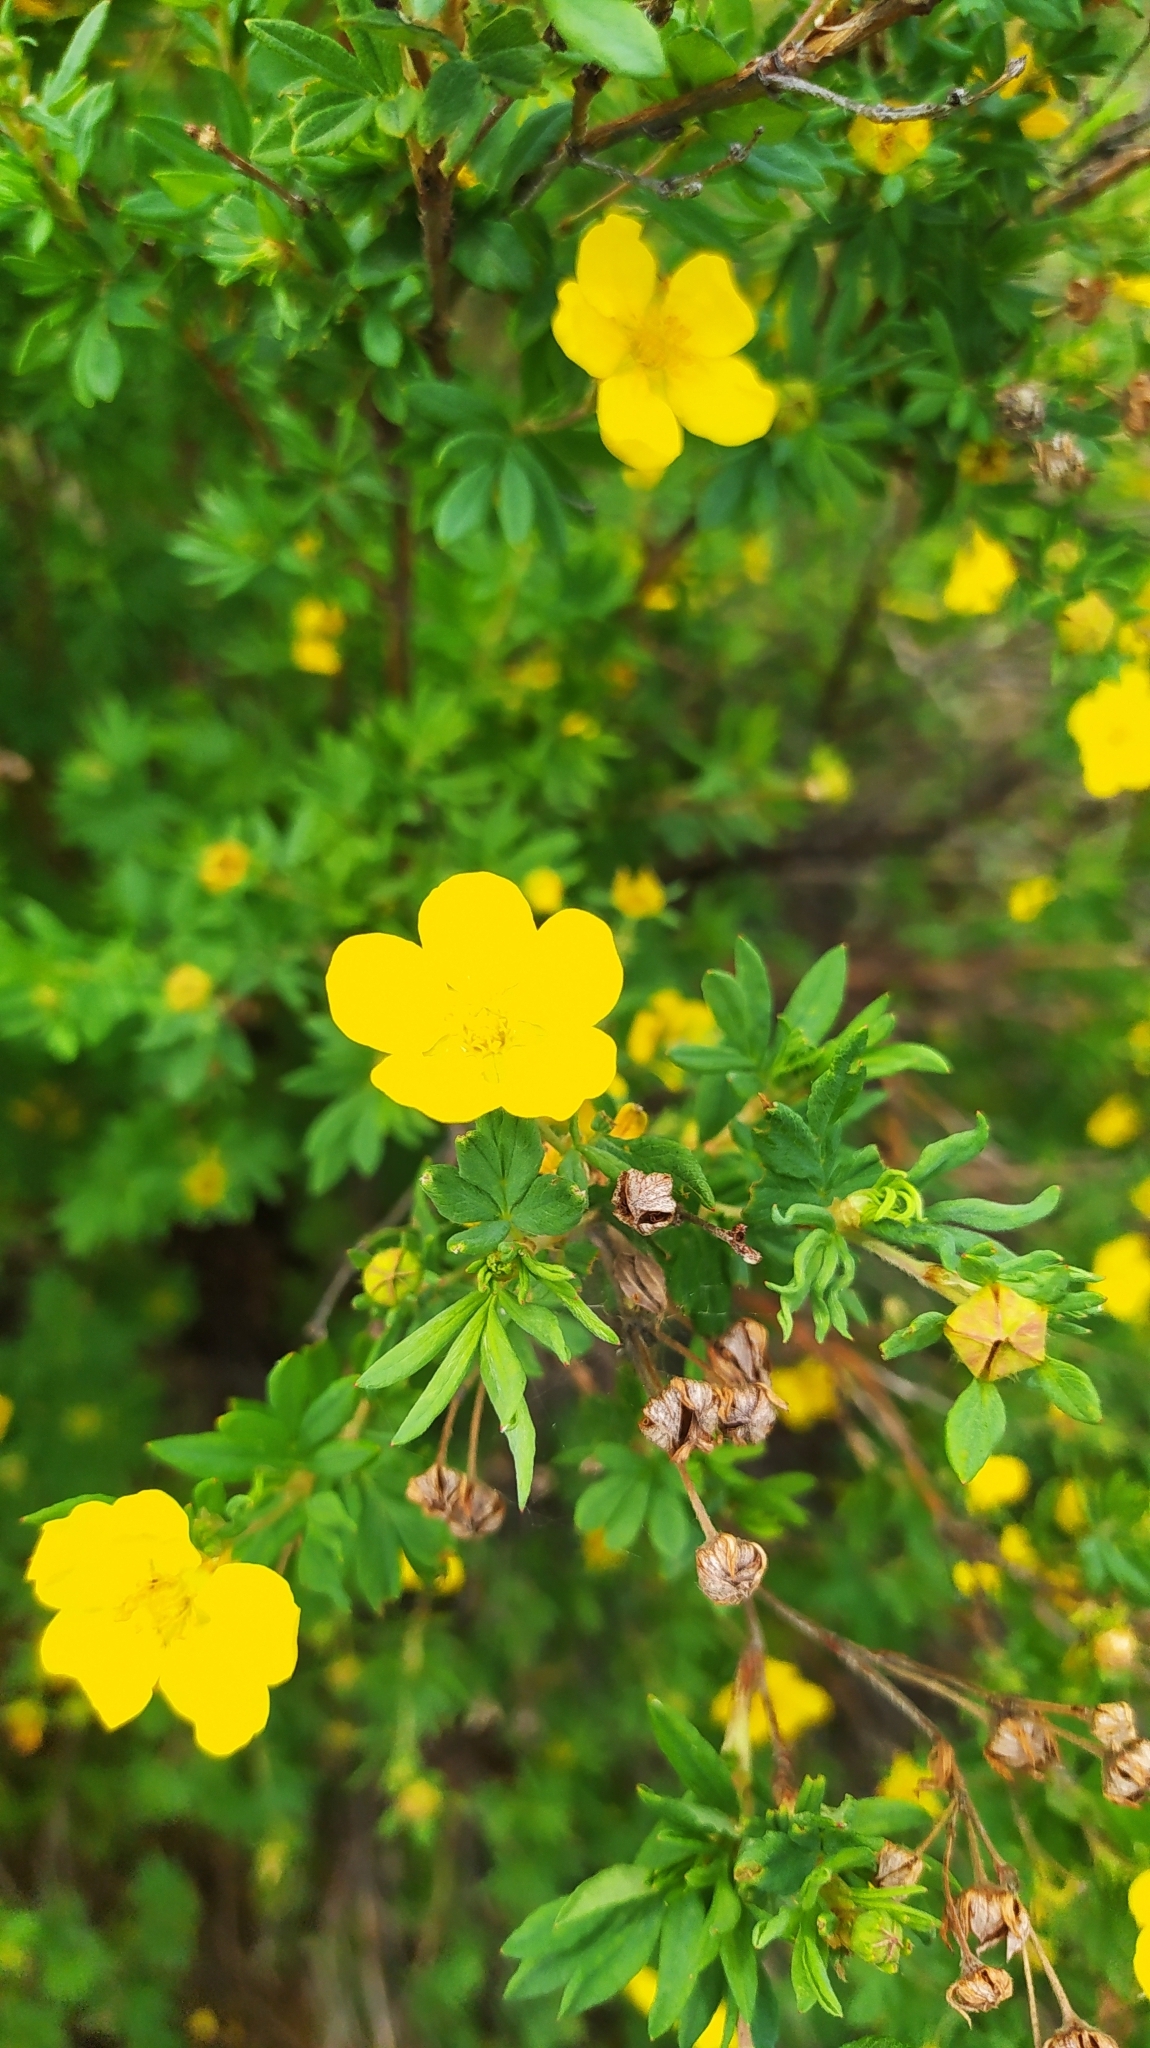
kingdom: Plantae
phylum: Tracheophyta
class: Magnoliopsida
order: Rosales
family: Rosaceae
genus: Dasiphora
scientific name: Dasiphora fruticosa
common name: Shrubby cinquefoil
